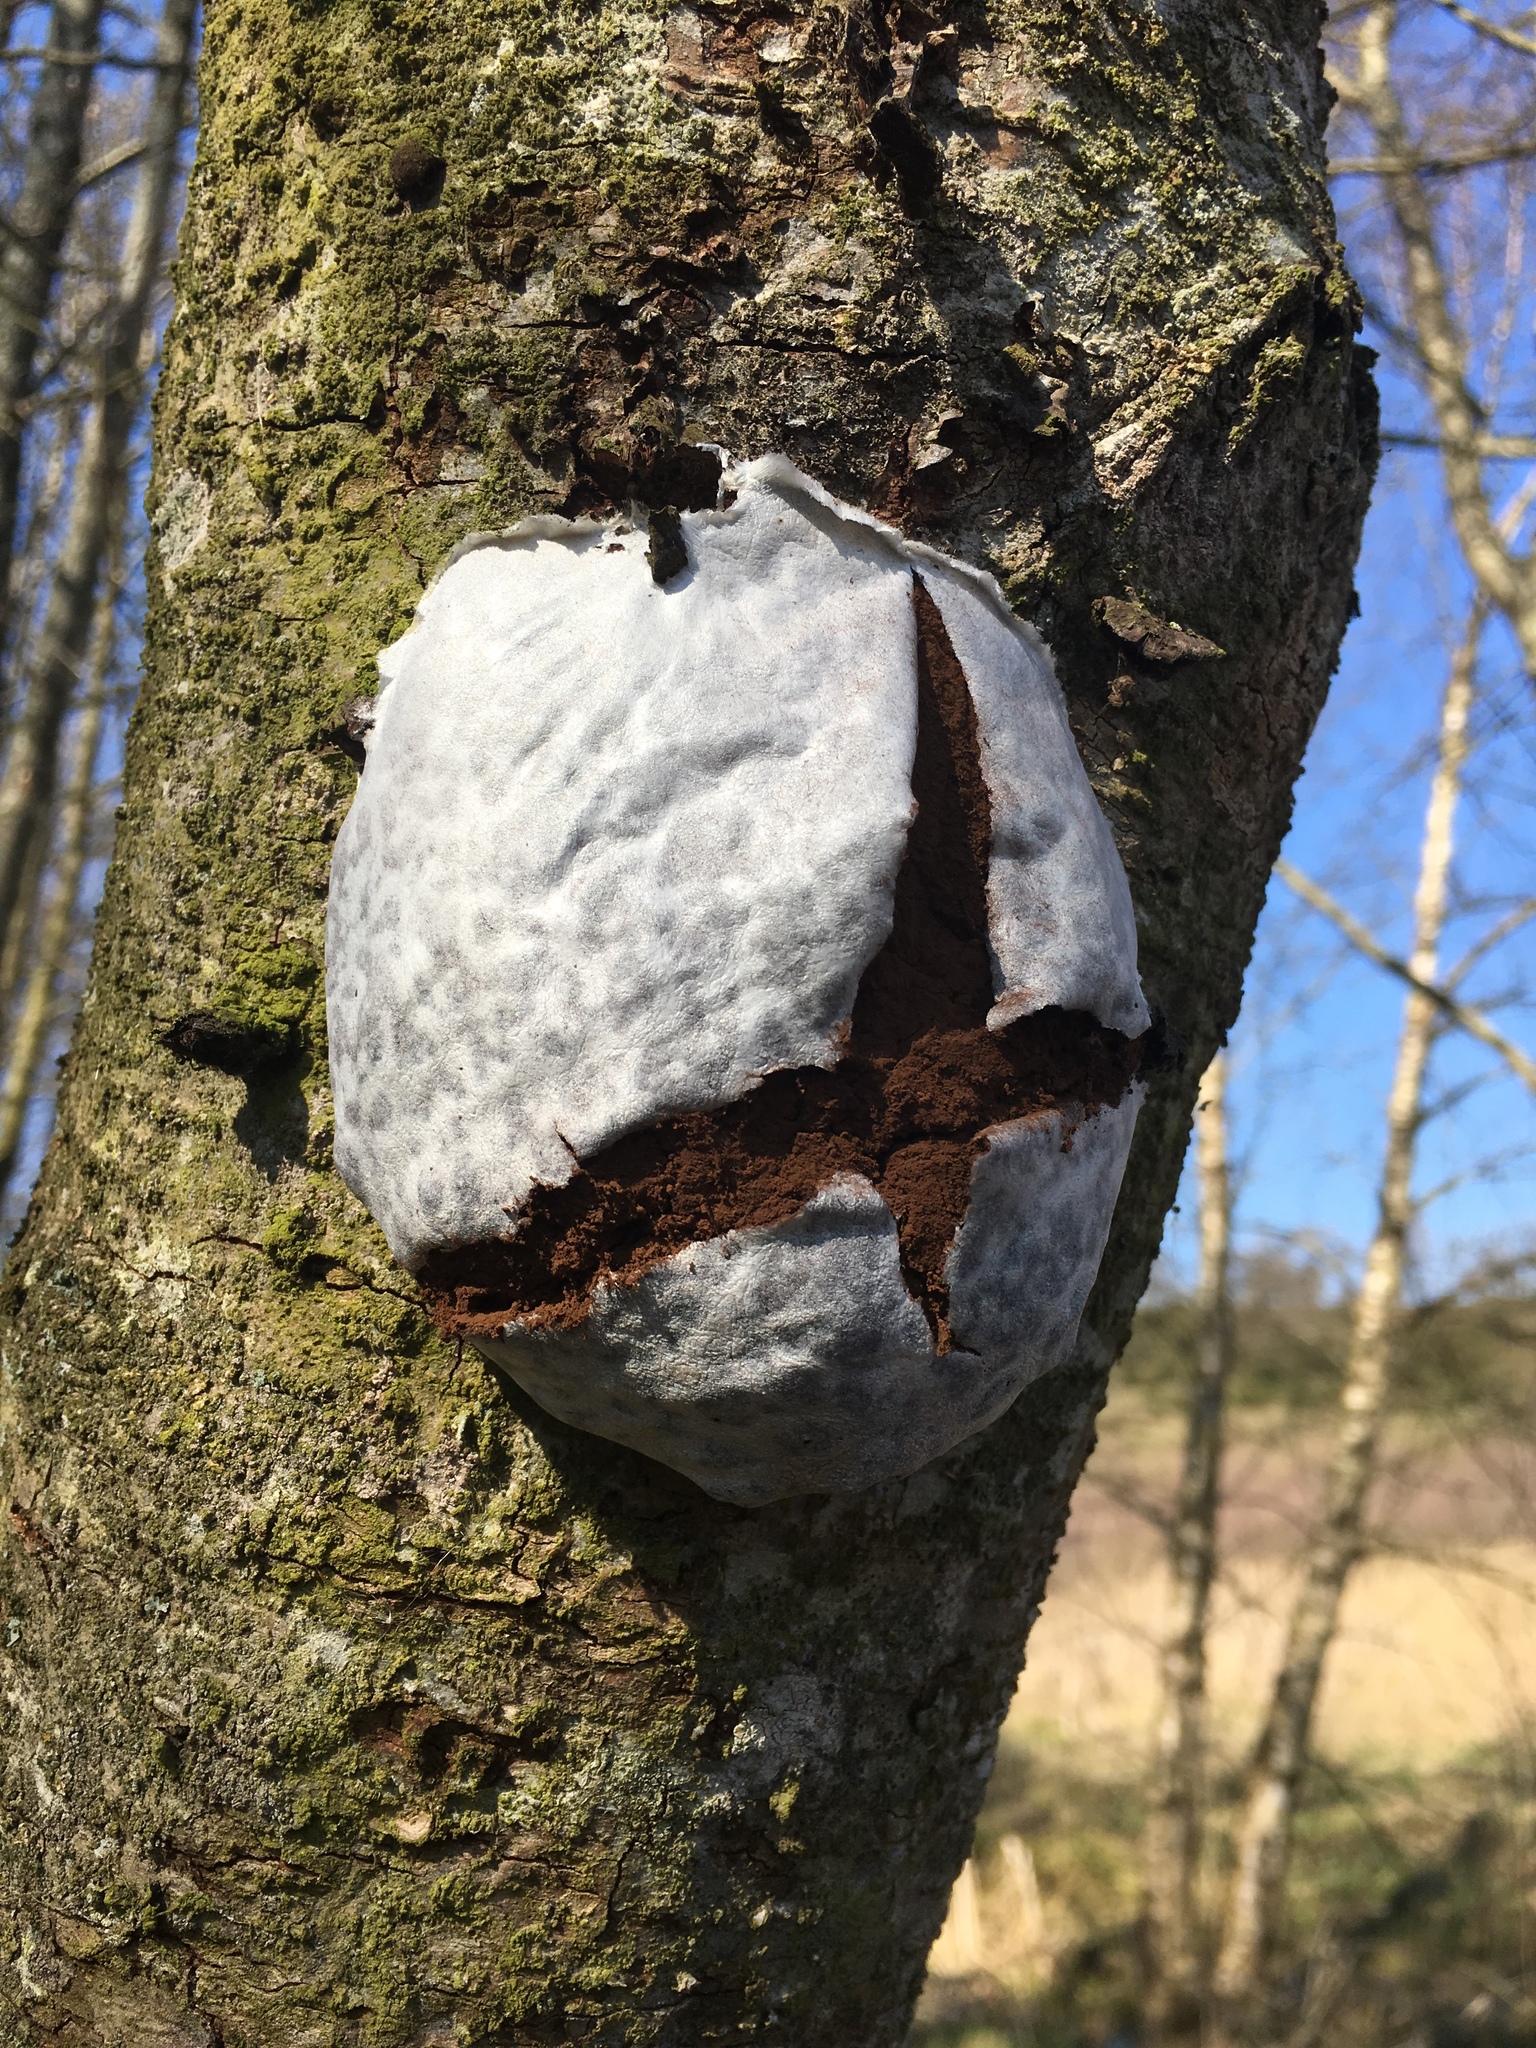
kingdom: Protozoa
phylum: Mycetozoa
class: Myxomycetes
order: Cribrariales
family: Tubiferaceae
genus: Reticularia
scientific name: Reticularia lycoperdon
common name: False puffball
